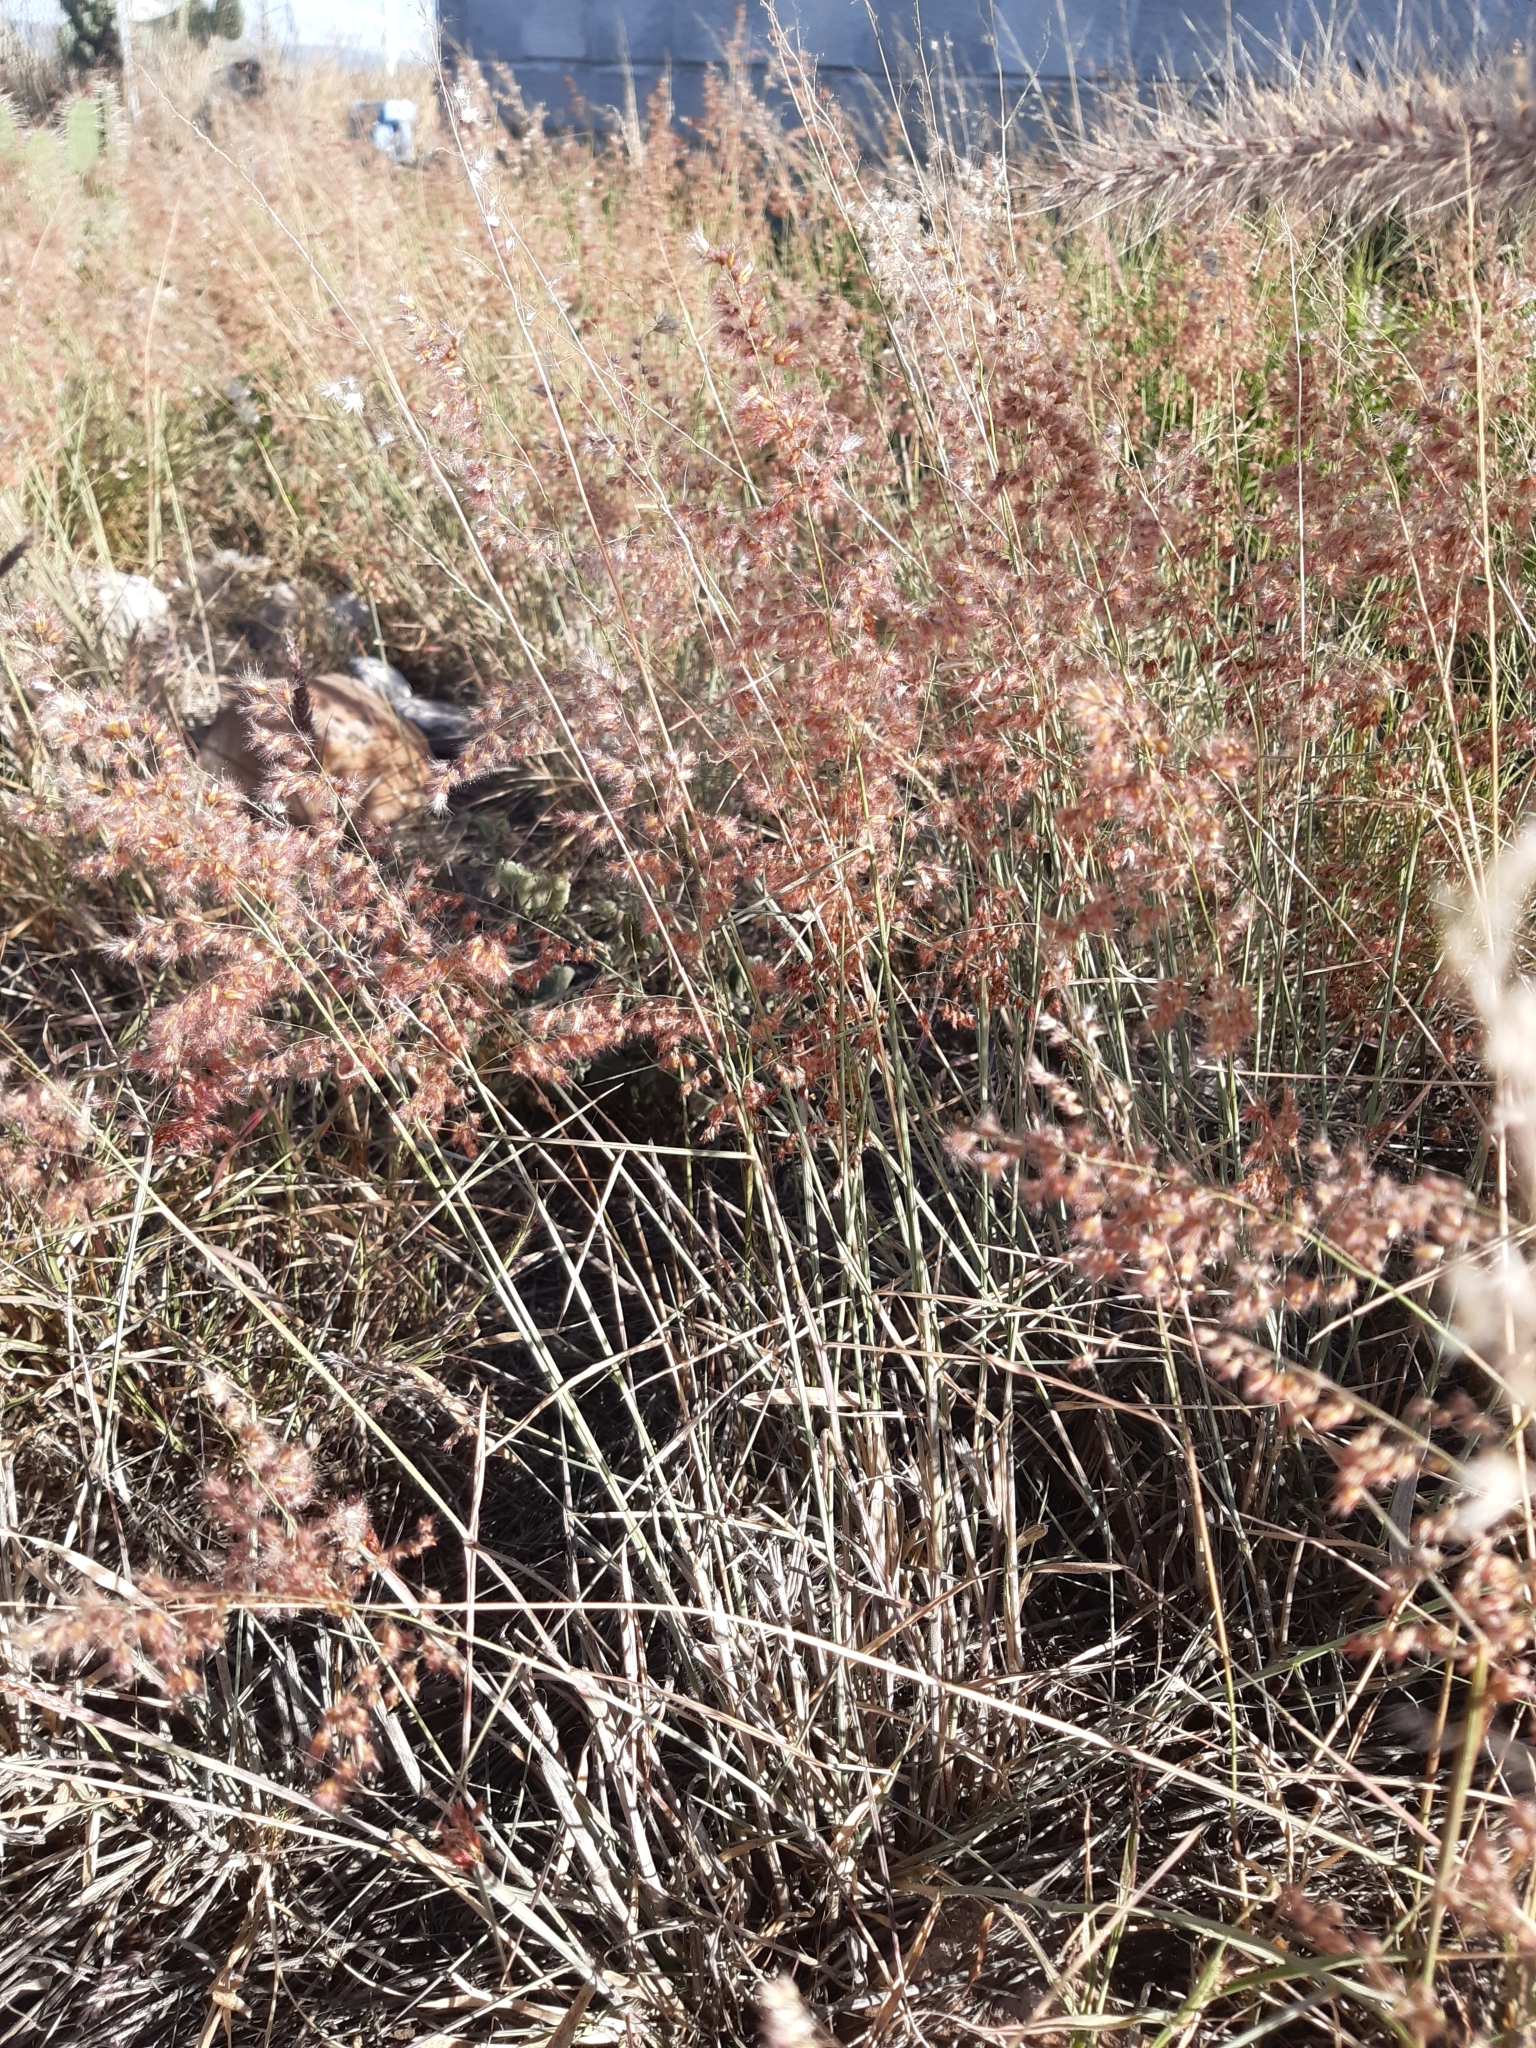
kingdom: Plantae
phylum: Tracheophyta
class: Liliopsida
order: Poales
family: Poaceae
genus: Melinis
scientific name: Melinis repens
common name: Rose natal grass
